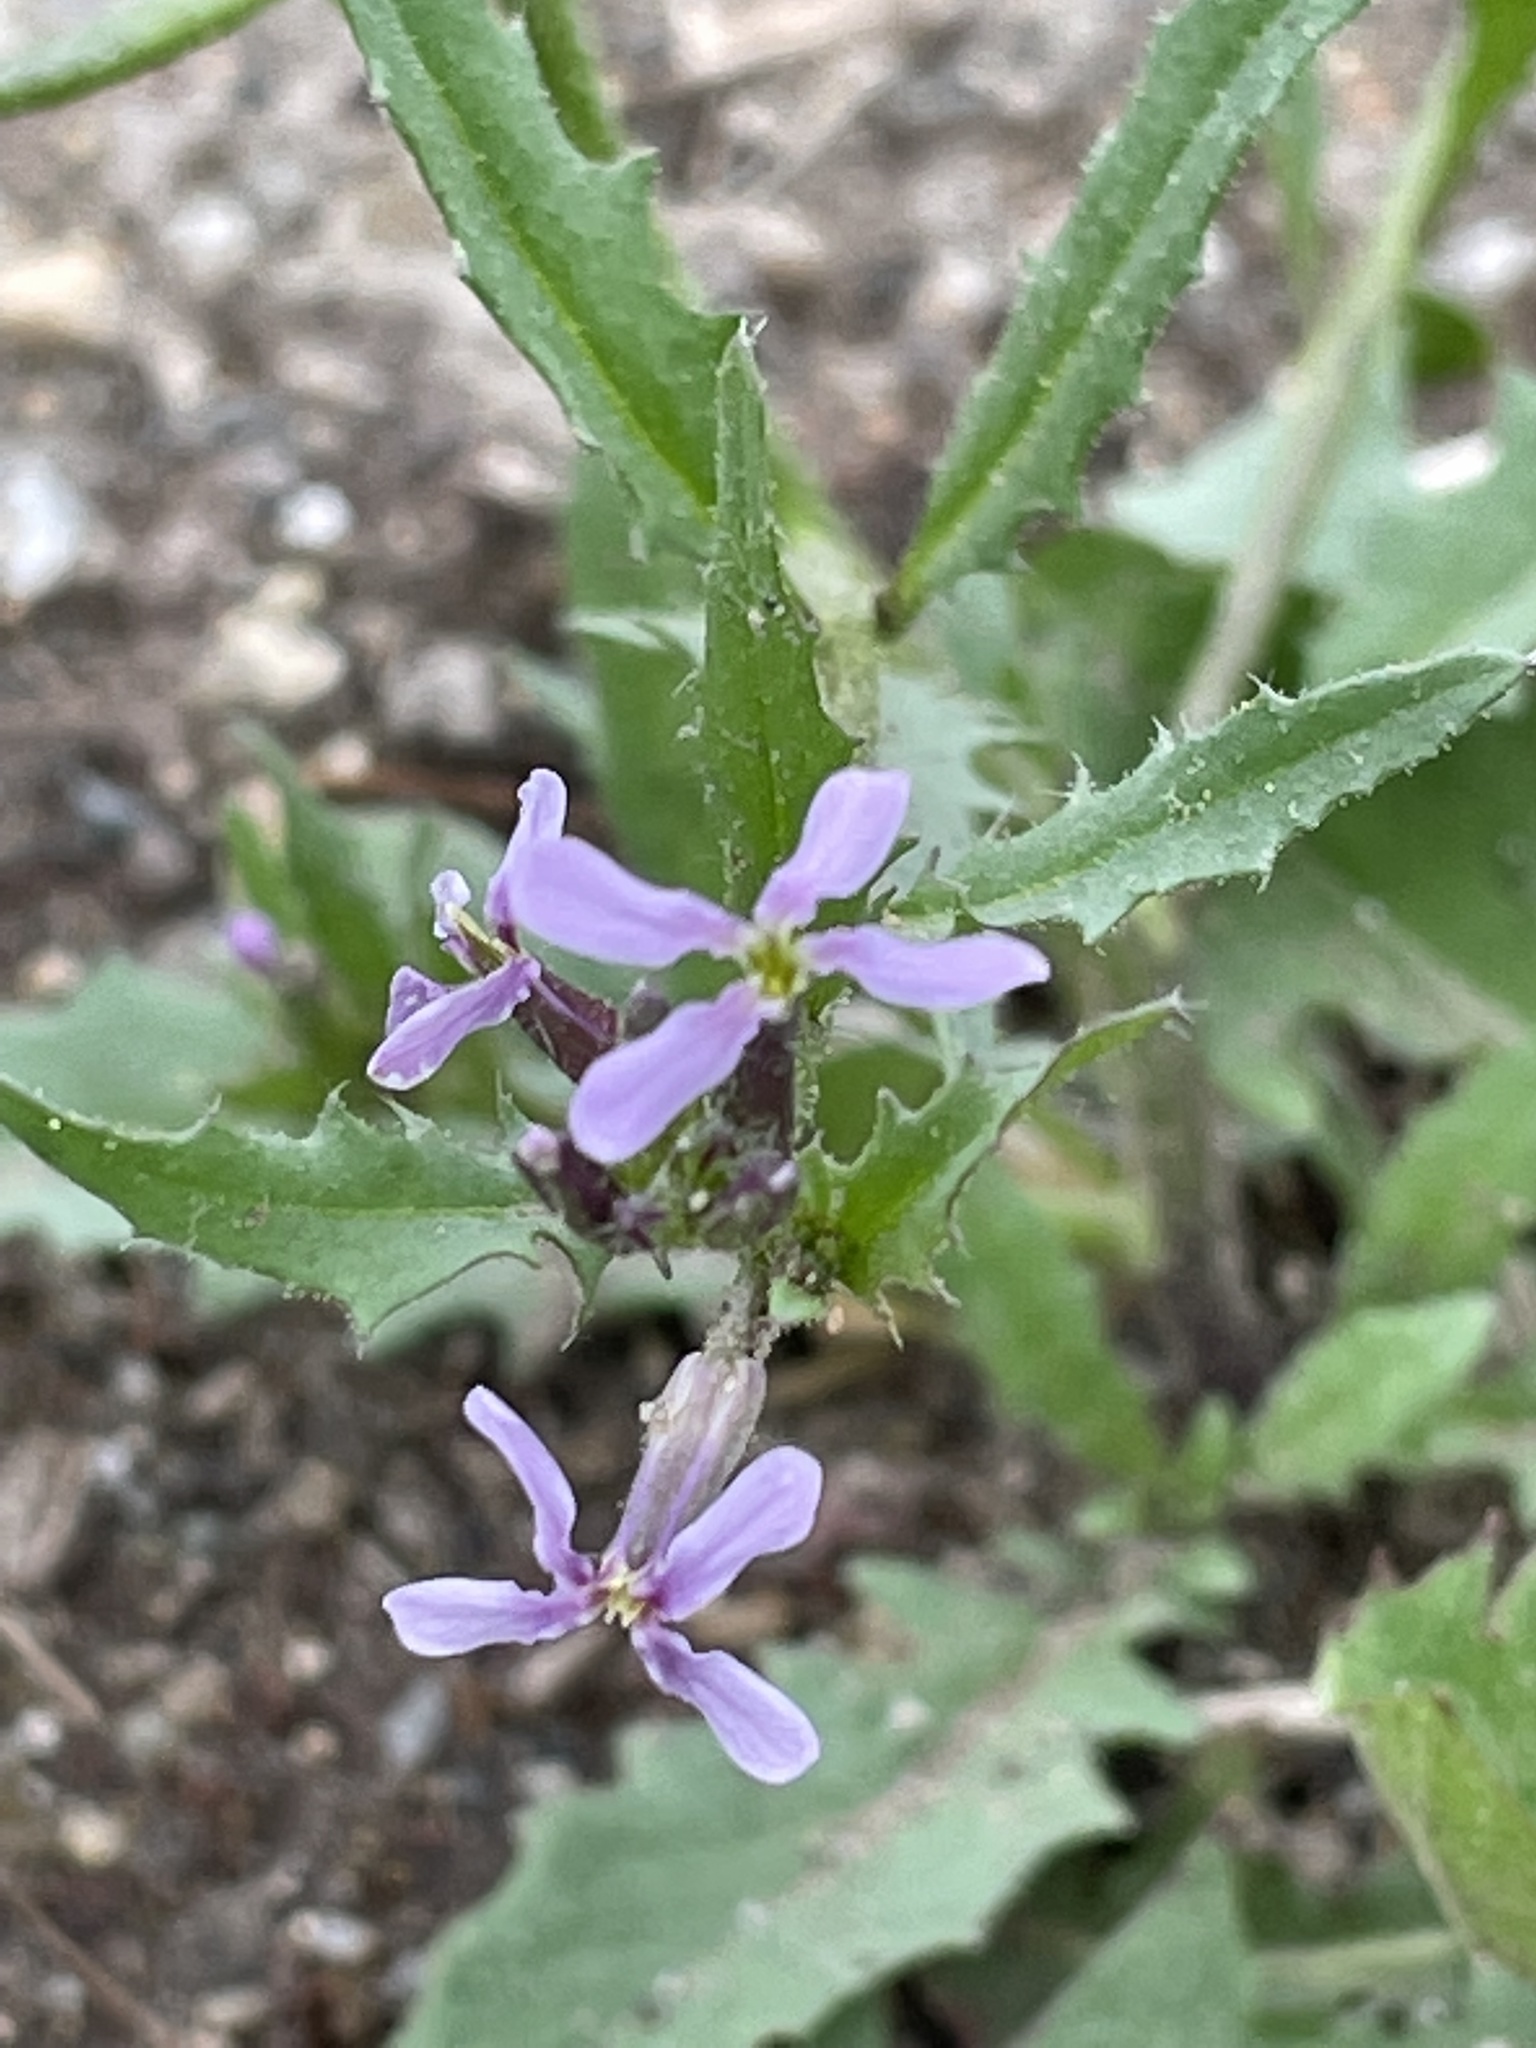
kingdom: Plantae
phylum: Tracheophyta
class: Magnoliopsida
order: Brassicales
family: Brassicaceae
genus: Chorispora
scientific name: Chorispora tenella
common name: Crossflower
